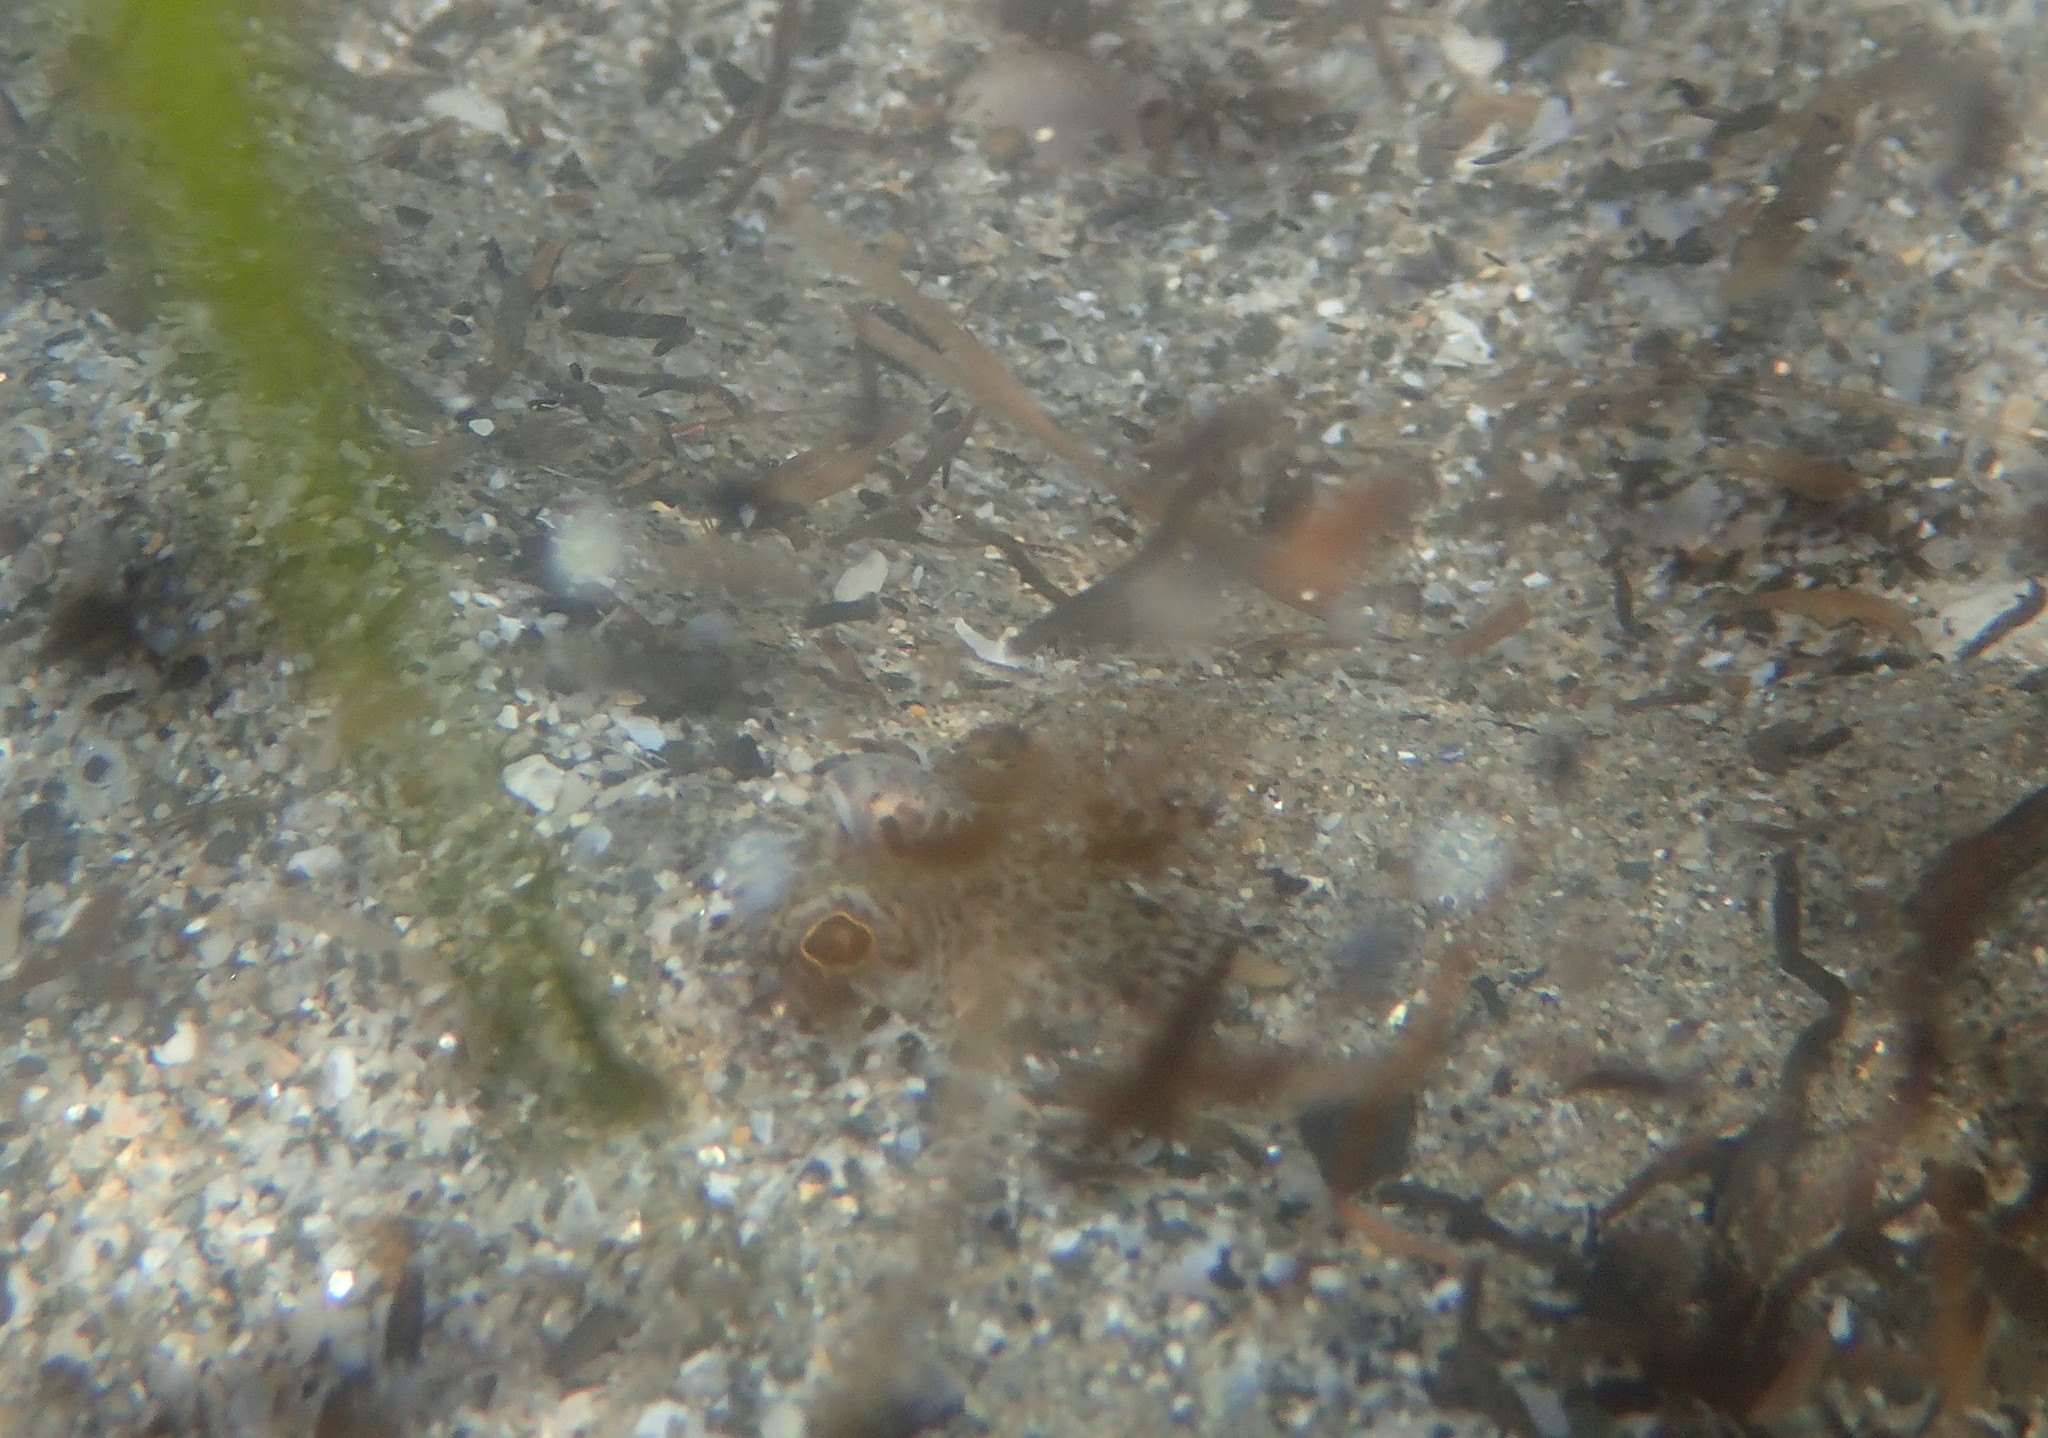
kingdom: Animalia
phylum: Chordata
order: Perciformes
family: Trachinidae
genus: Echiichthys
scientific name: Echiichthys vipera
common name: Lesser weever
